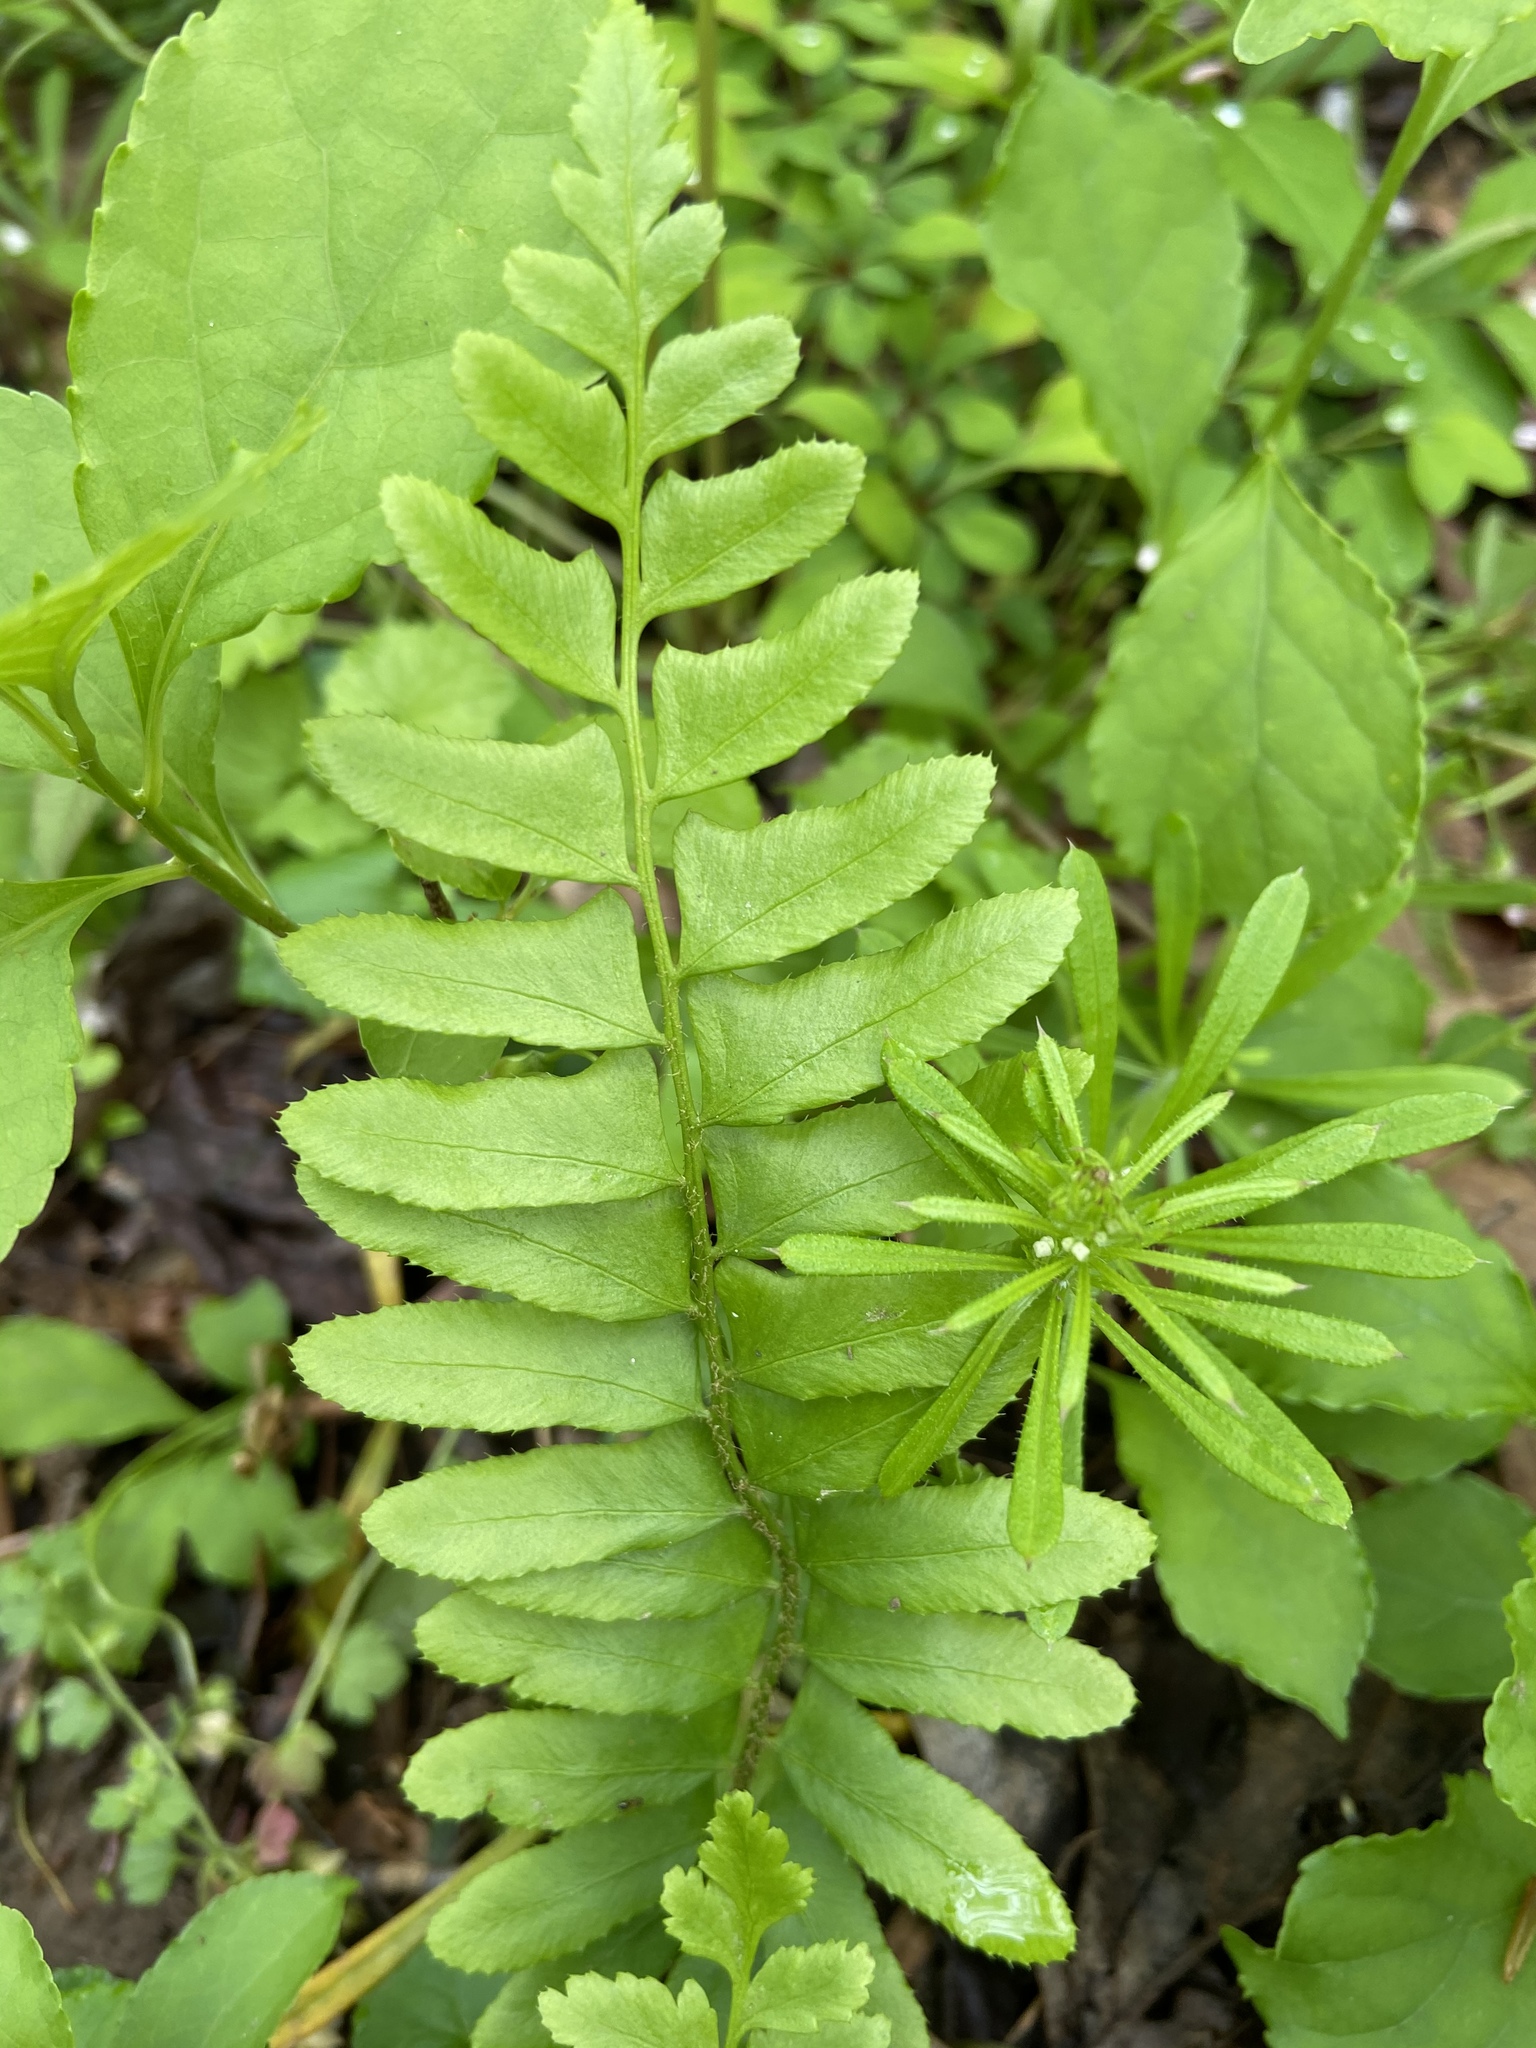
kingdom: Plantae
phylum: Tracheophyta
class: Polypodiopsida
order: Polypodiales
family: Dryopteridaceae
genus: Polystichum
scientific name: Polystichum acrostichoides
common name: Christmas fern
